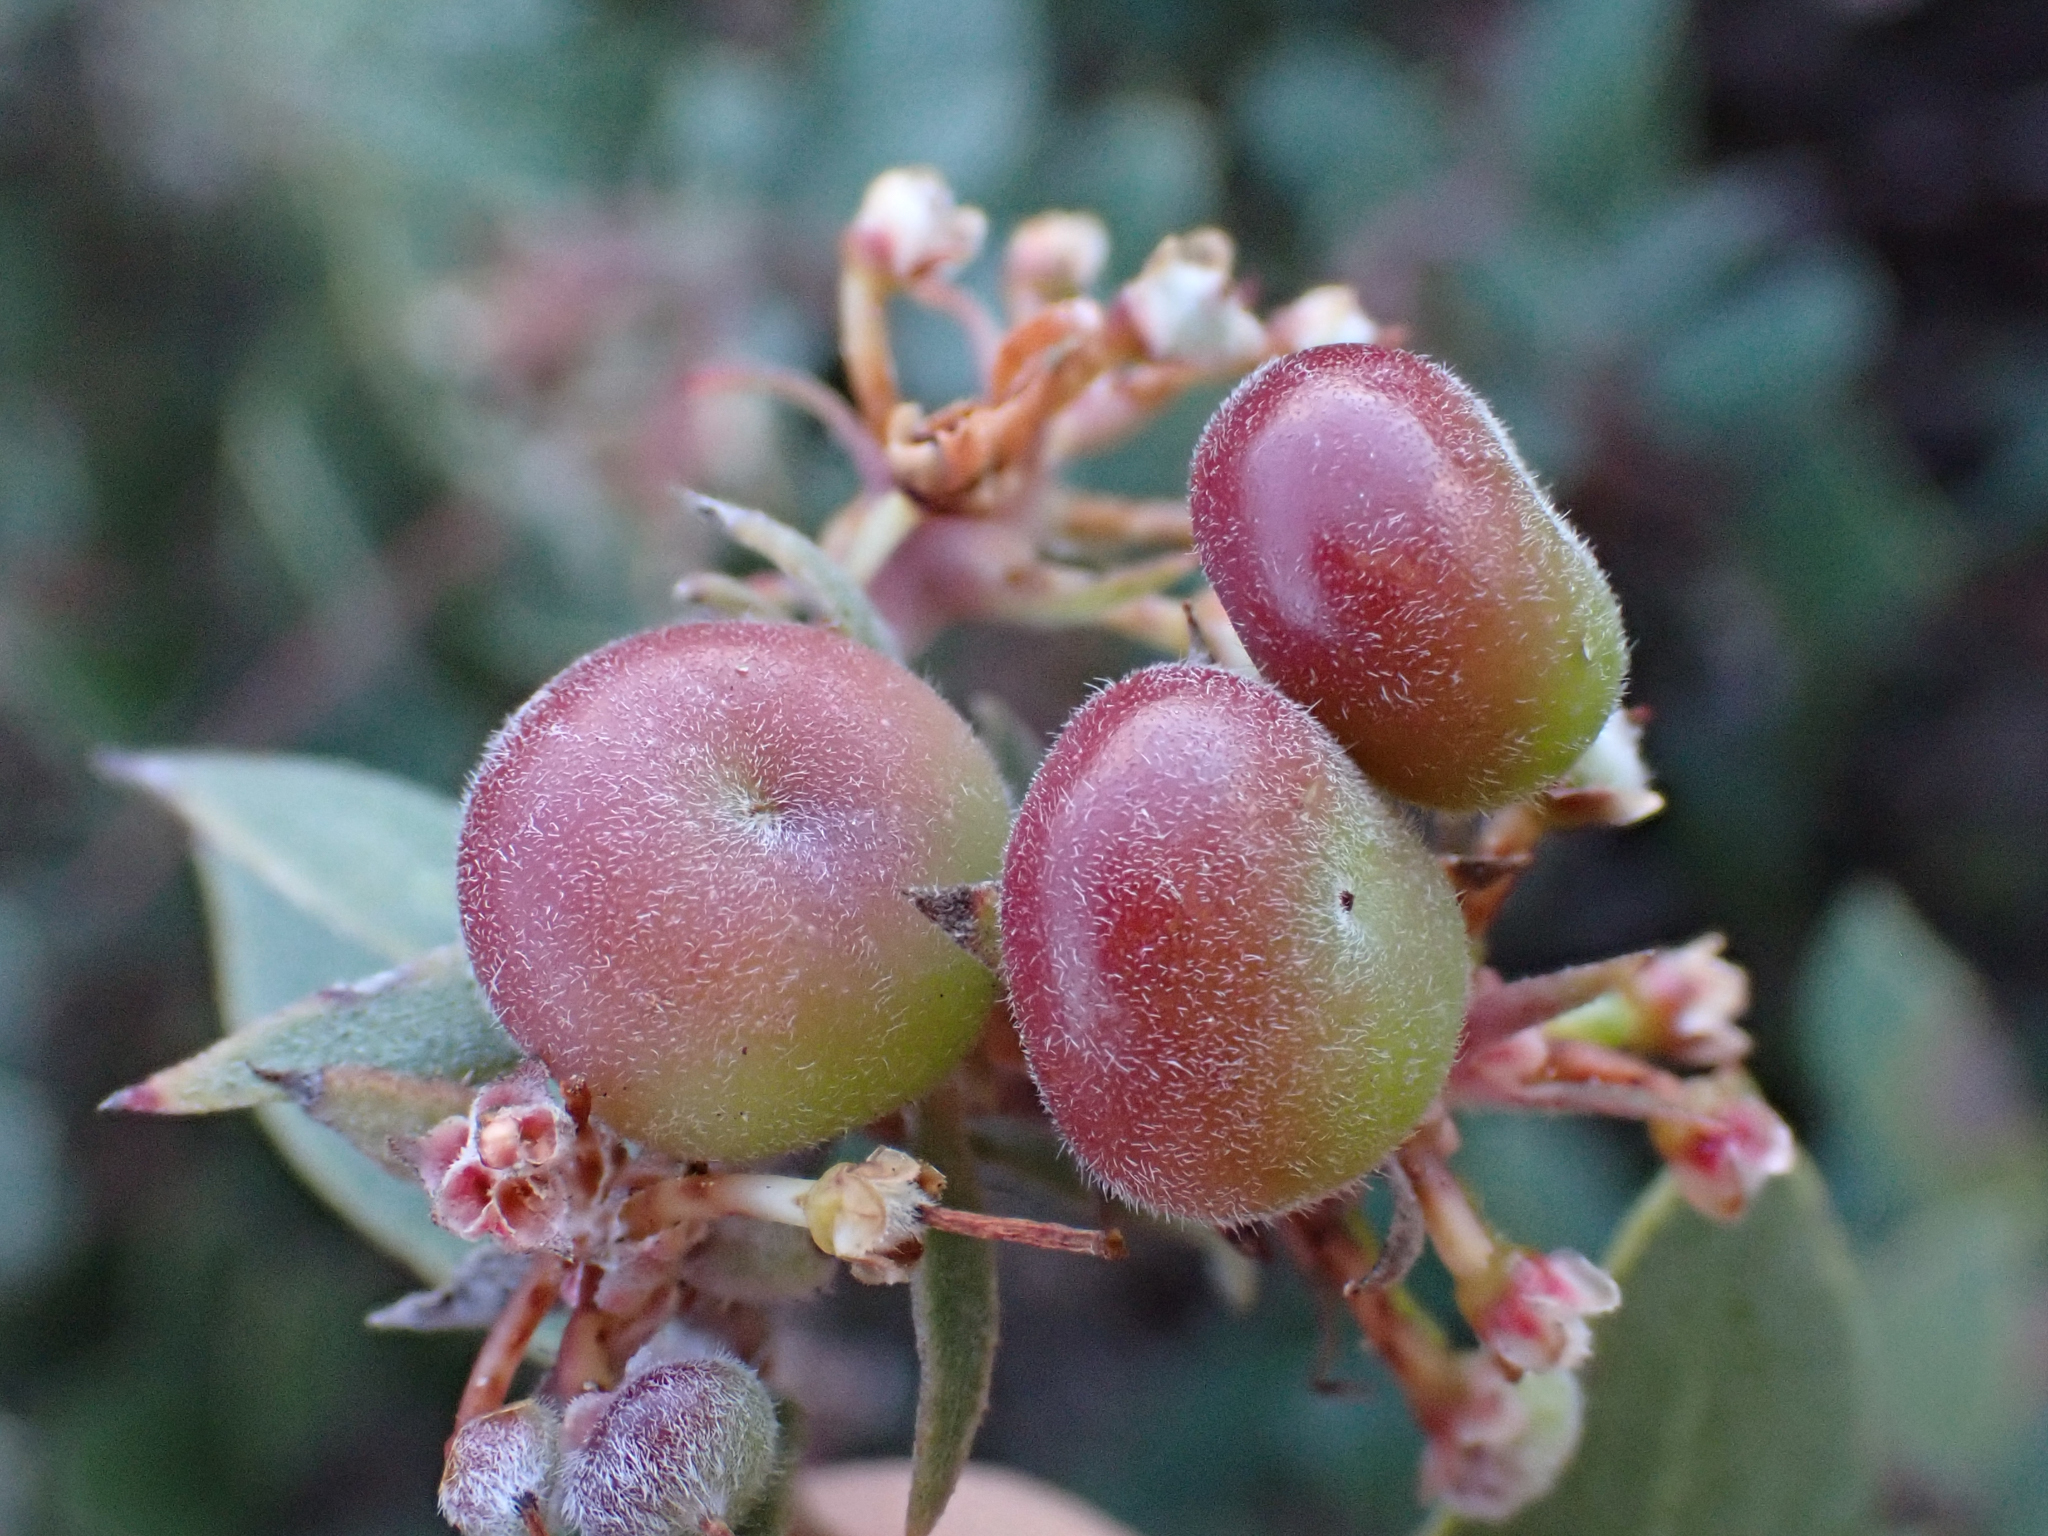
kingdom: Plantae
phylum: Tracheophyta
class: Magnoliopsida
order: Ericales
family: Ericaceae
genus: Arctostaphylos
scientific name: Arctostaphylos morroensis
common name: Morro manzanita
